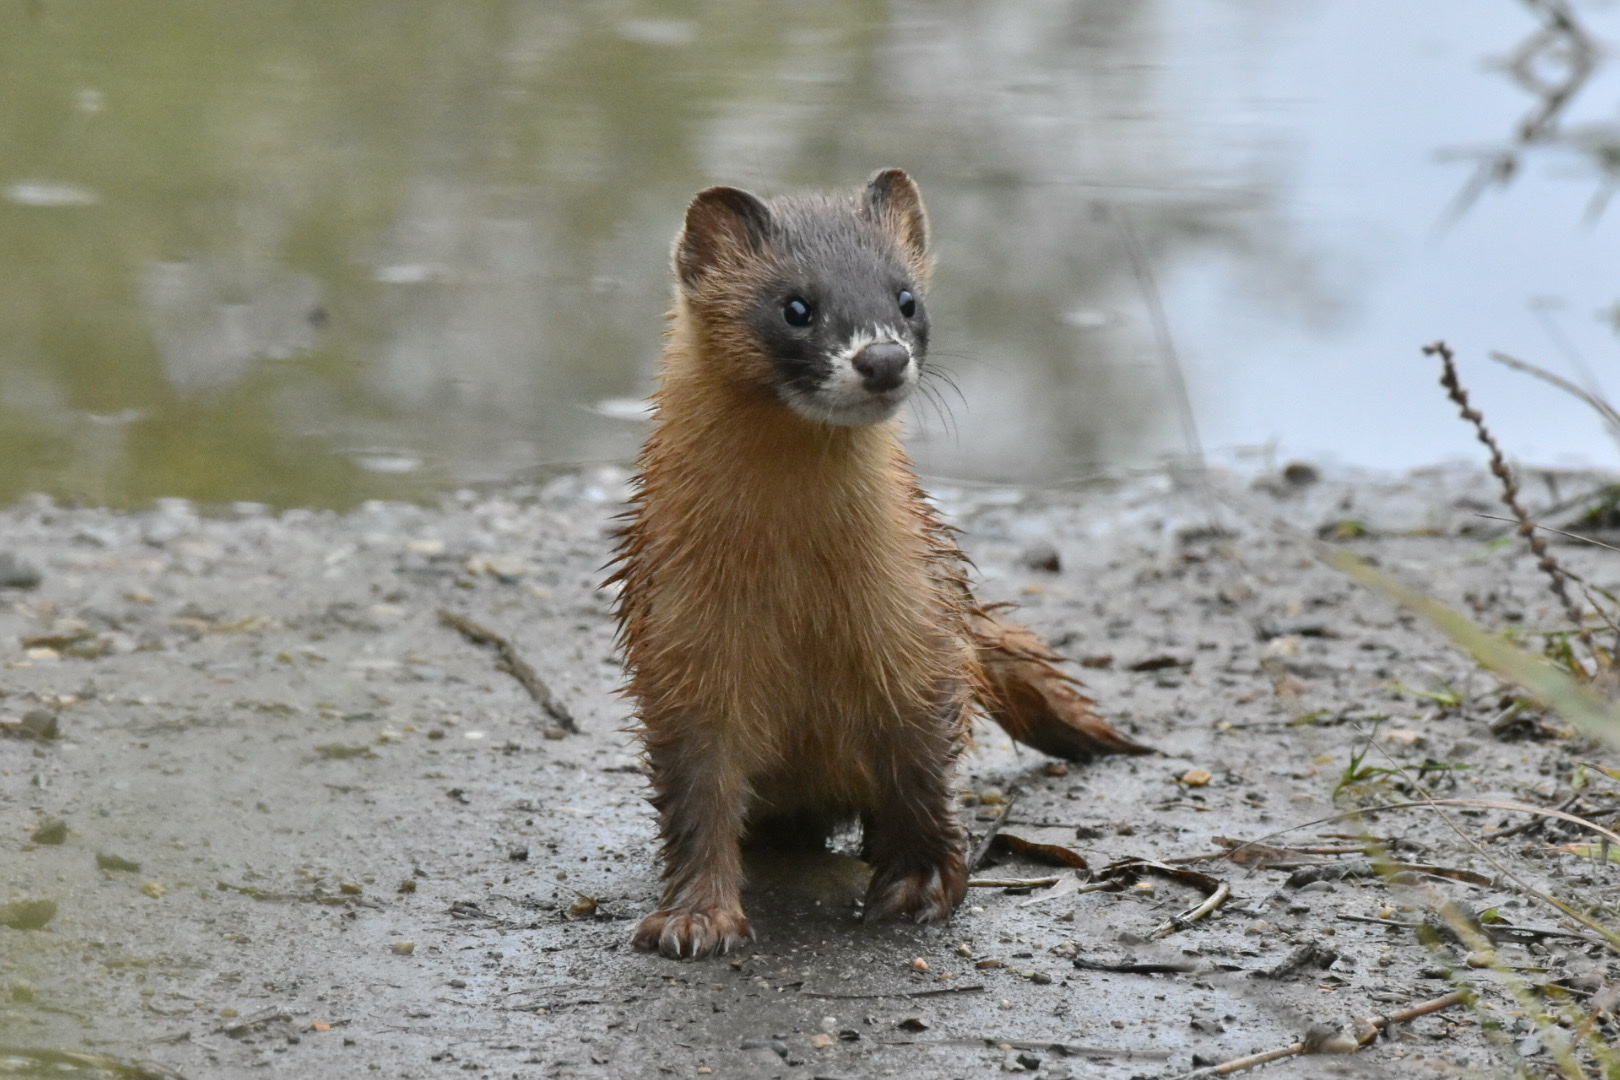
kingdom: Animalia
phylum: Chordata
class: Mammalia
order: Carnivora
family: Mustelidae
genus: Mustela
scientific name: Mustela sibirica
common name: Siberian weasel
